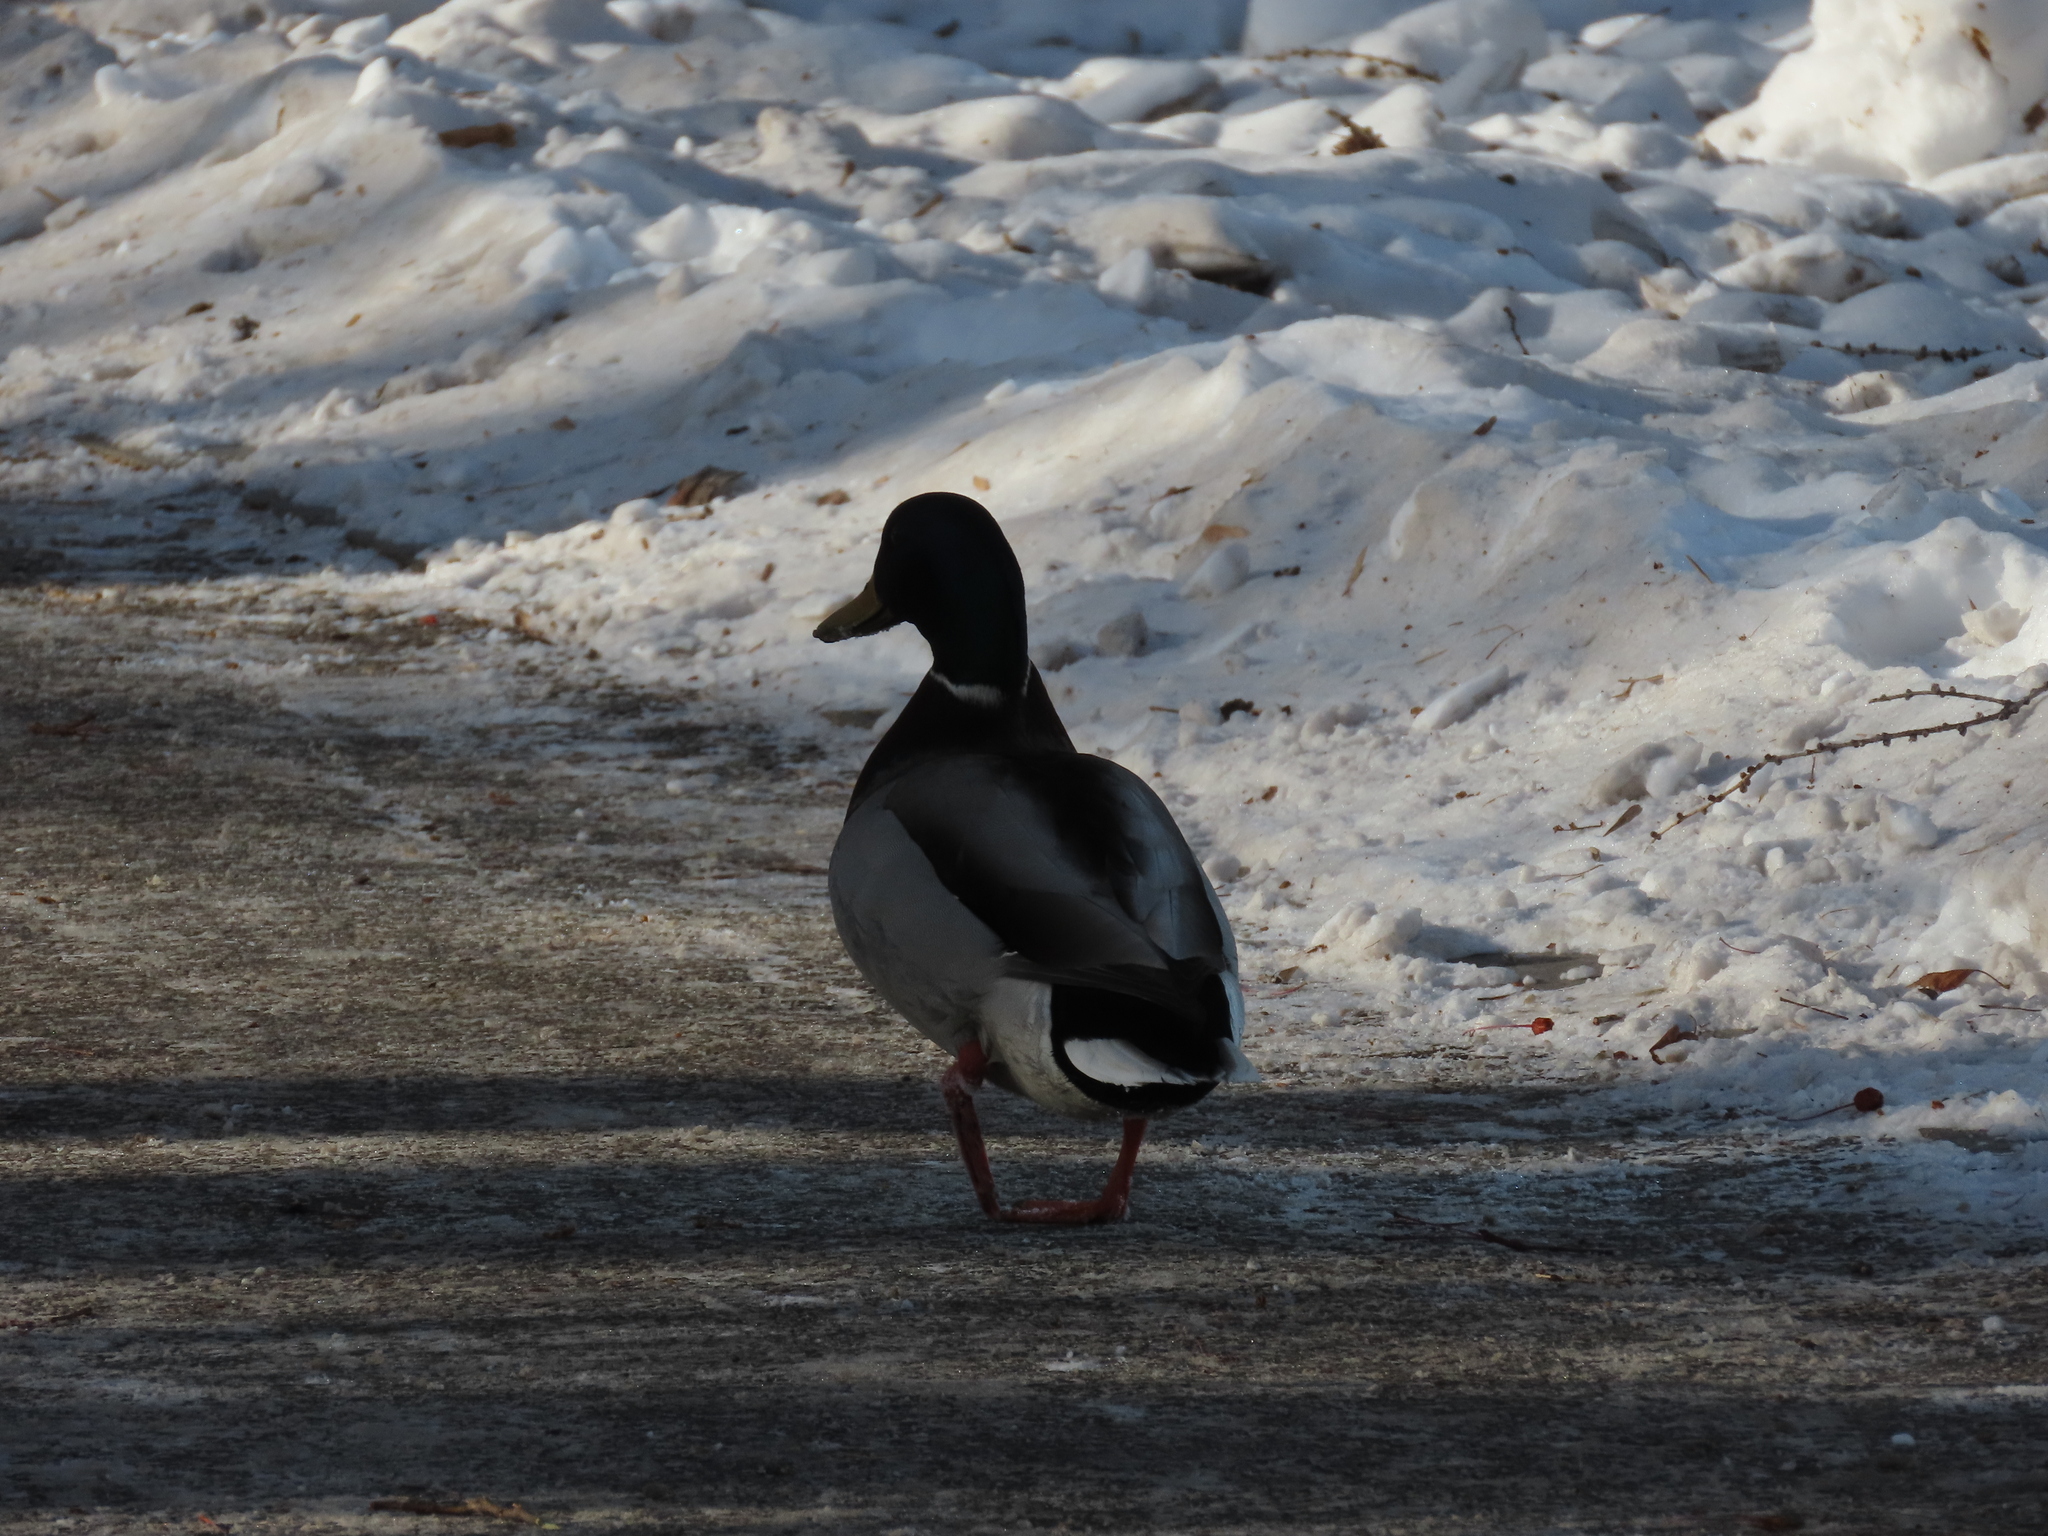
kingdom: Animalia
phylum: Chordata
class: Aves
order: Anseriformes
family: Anatidae
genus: Anas
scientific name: Anas platyrhynchos
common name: Mallard
